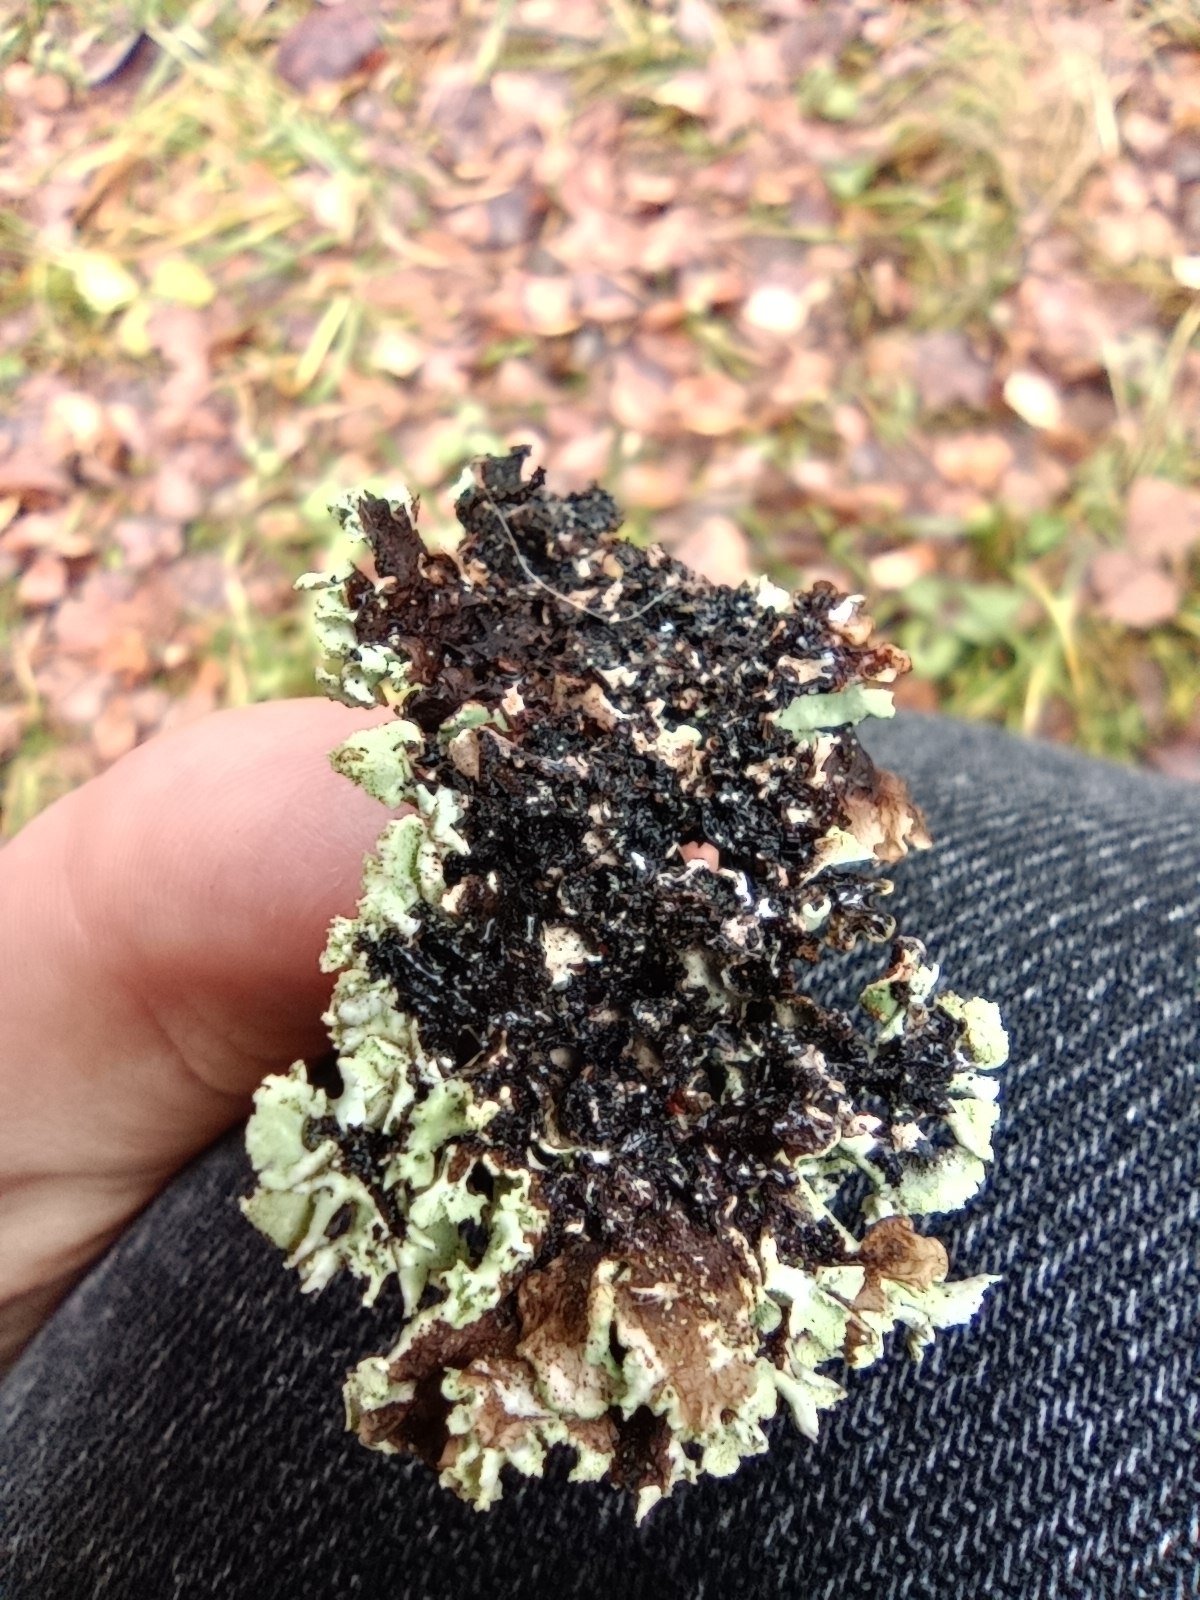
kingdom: Fungi
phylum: Ascomycota
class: Lecanoromycetes
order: Lecanorales
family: Parmeliaceae
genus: Hypogymnia
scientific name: Hypogymnia physodes
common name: Dark crottle
